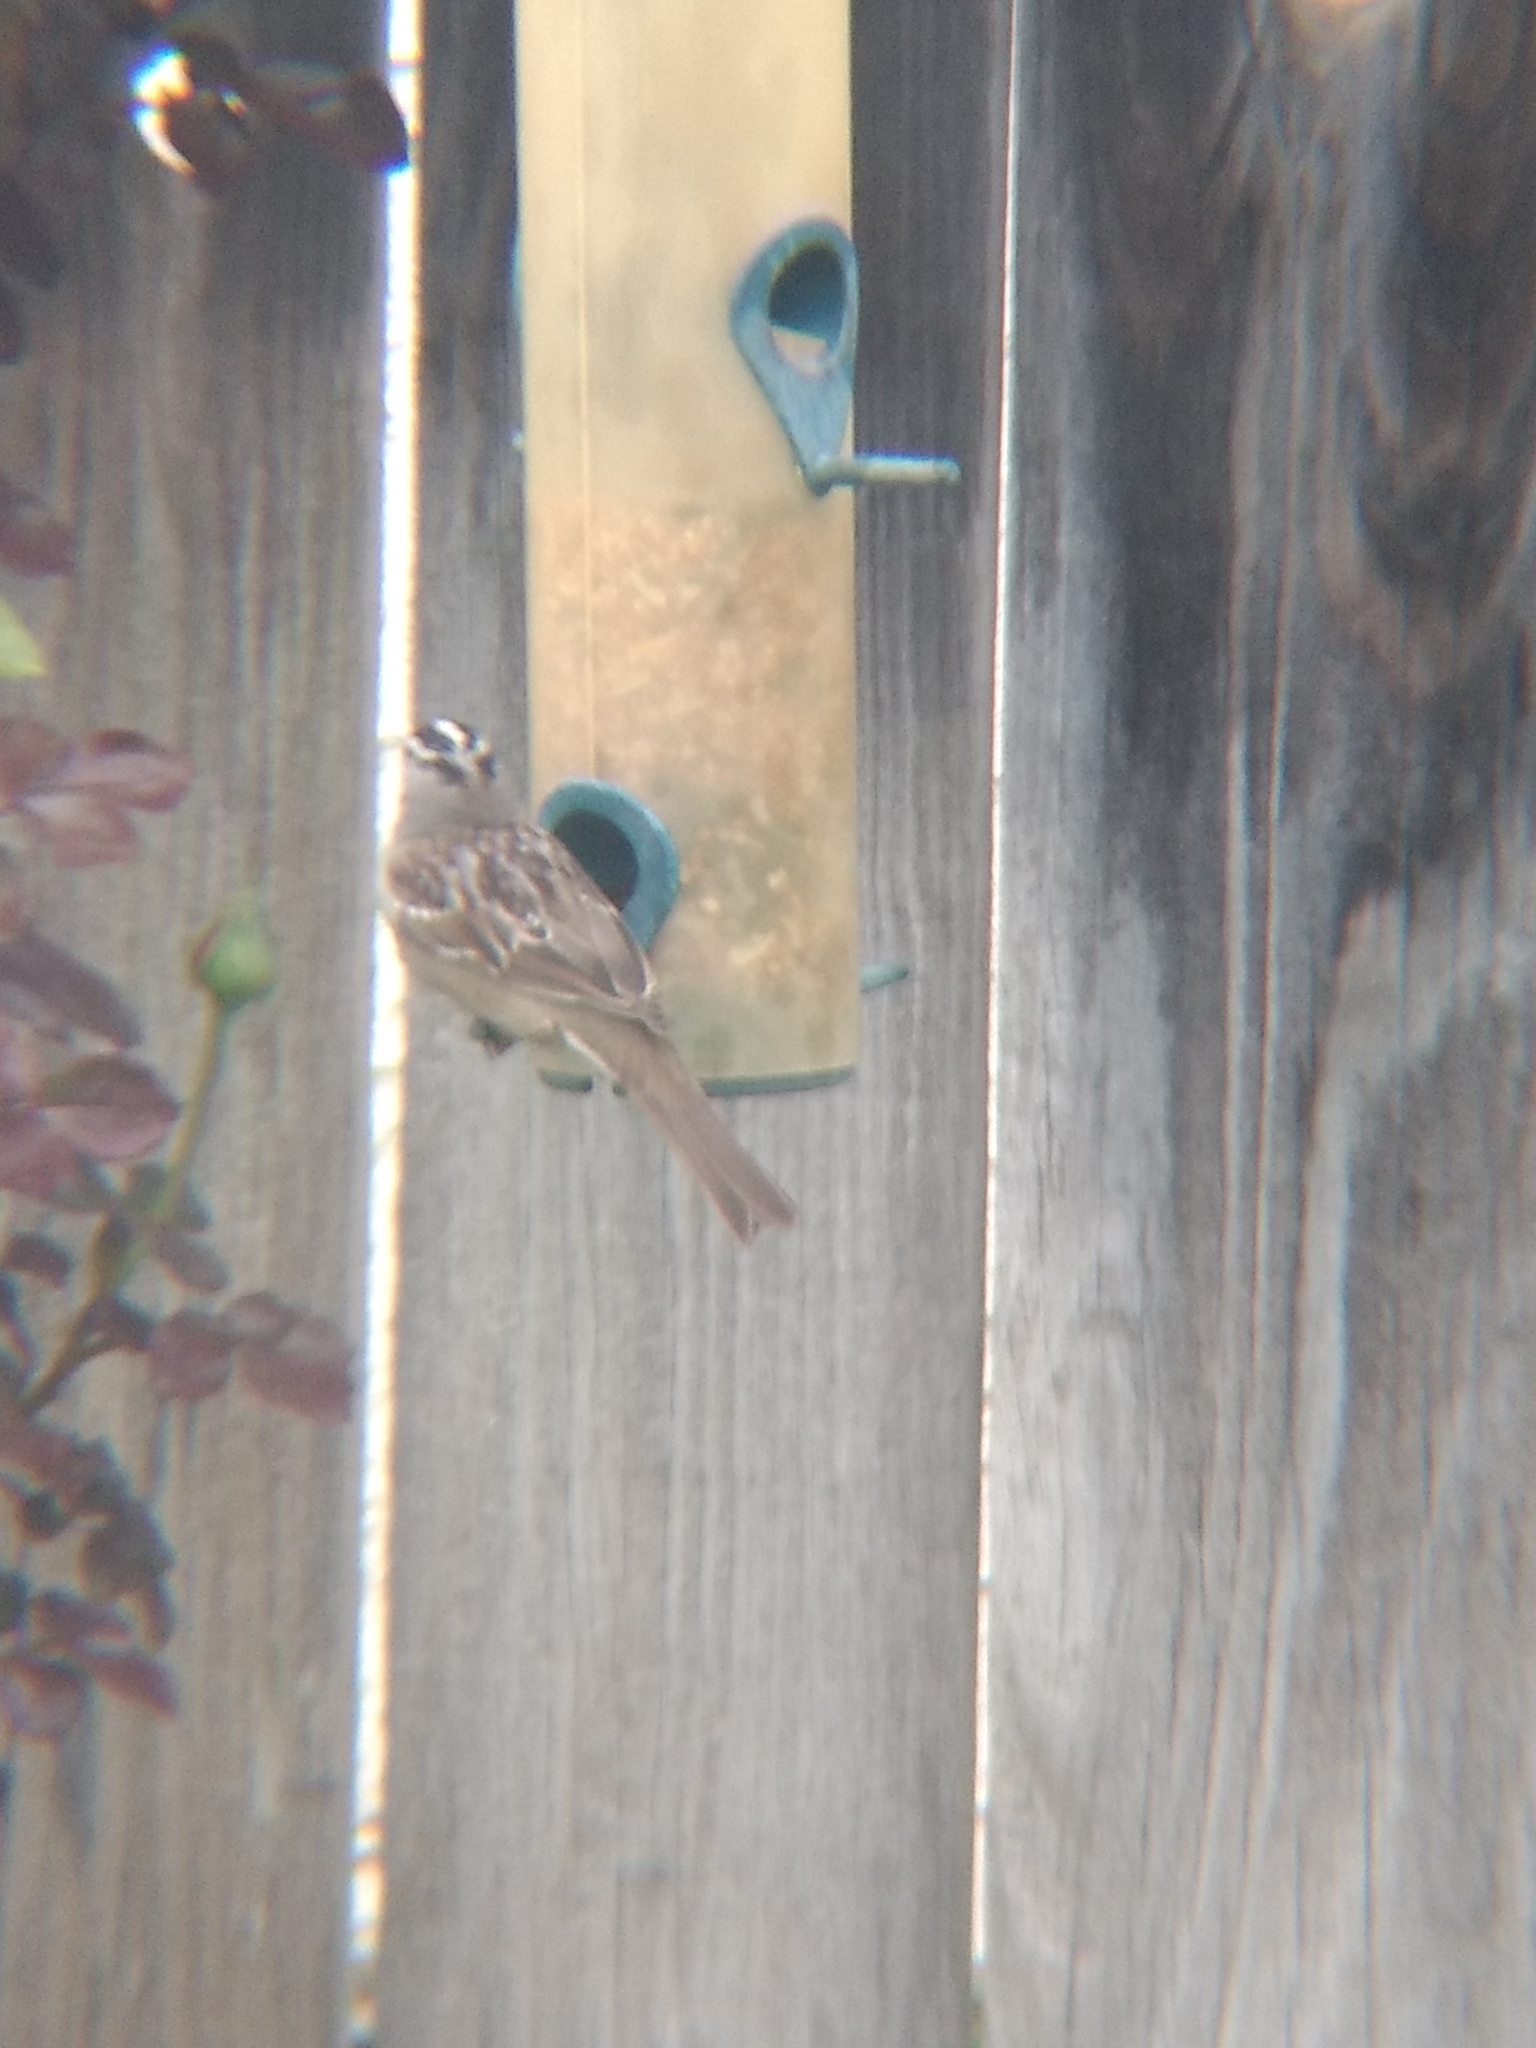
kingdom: Animalia
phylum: Chordata
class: Aves
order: Passeriformes
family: Passerellidae
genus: Zonotrichia
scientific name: Zonotrichia leucophrys
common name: White-crowned sparrow
